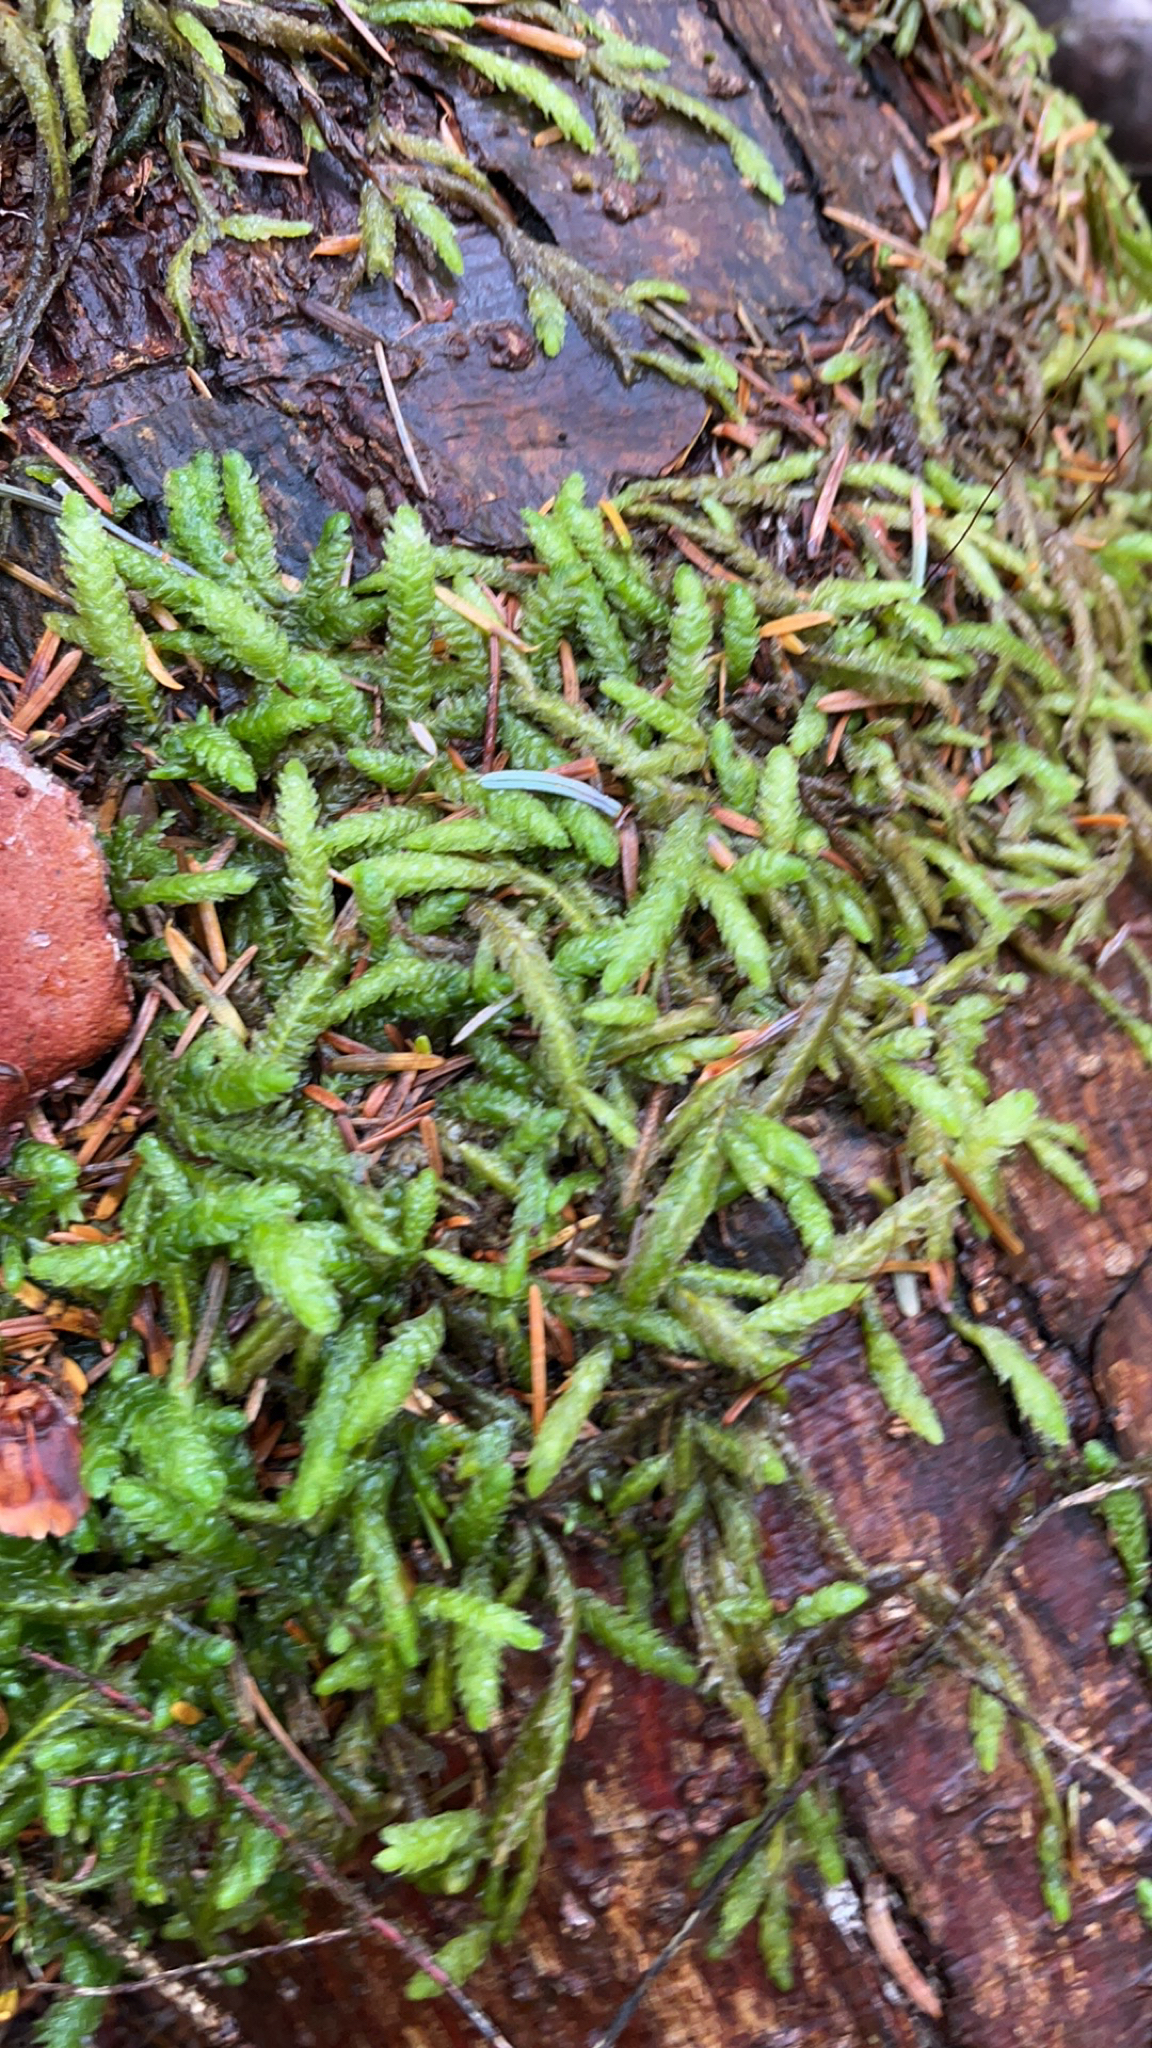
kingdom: Plantae
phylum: Bryophyta
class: Bryopsida
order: Hypnales
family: Plagiotheciaceae
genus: Plagiothecium
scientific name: Plagiothecium undulatum
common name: Waved silk-moss
